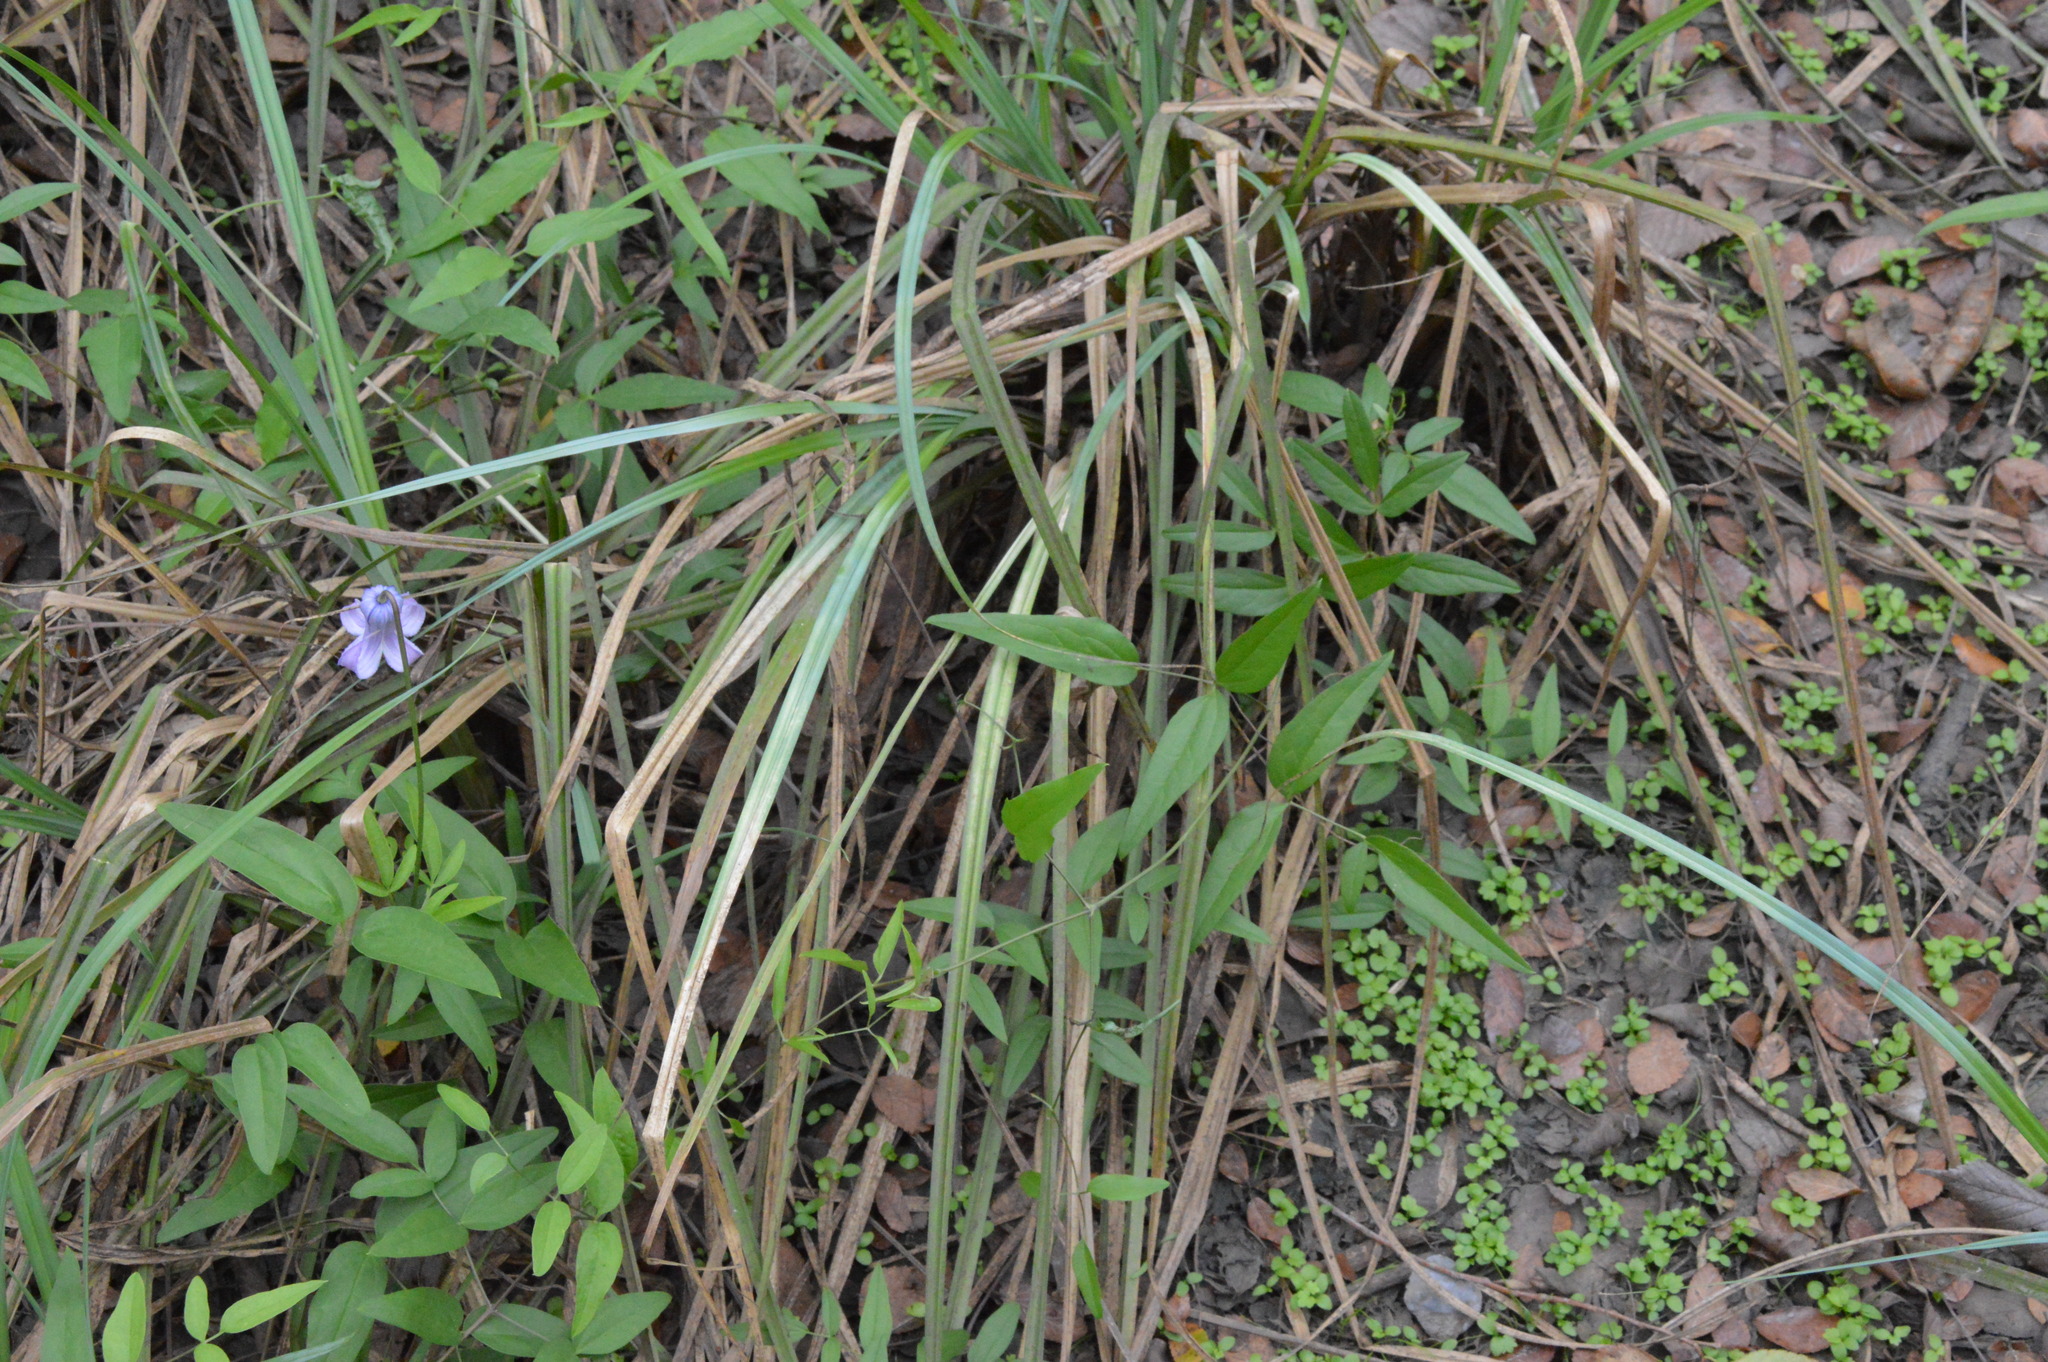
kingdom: Plantae
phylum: Tracheophyta
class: Magnoliopsida
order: Ranunculales
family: Ranunculaceae
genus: Clematis
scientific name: Clematis crispa
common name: Curly clematis
